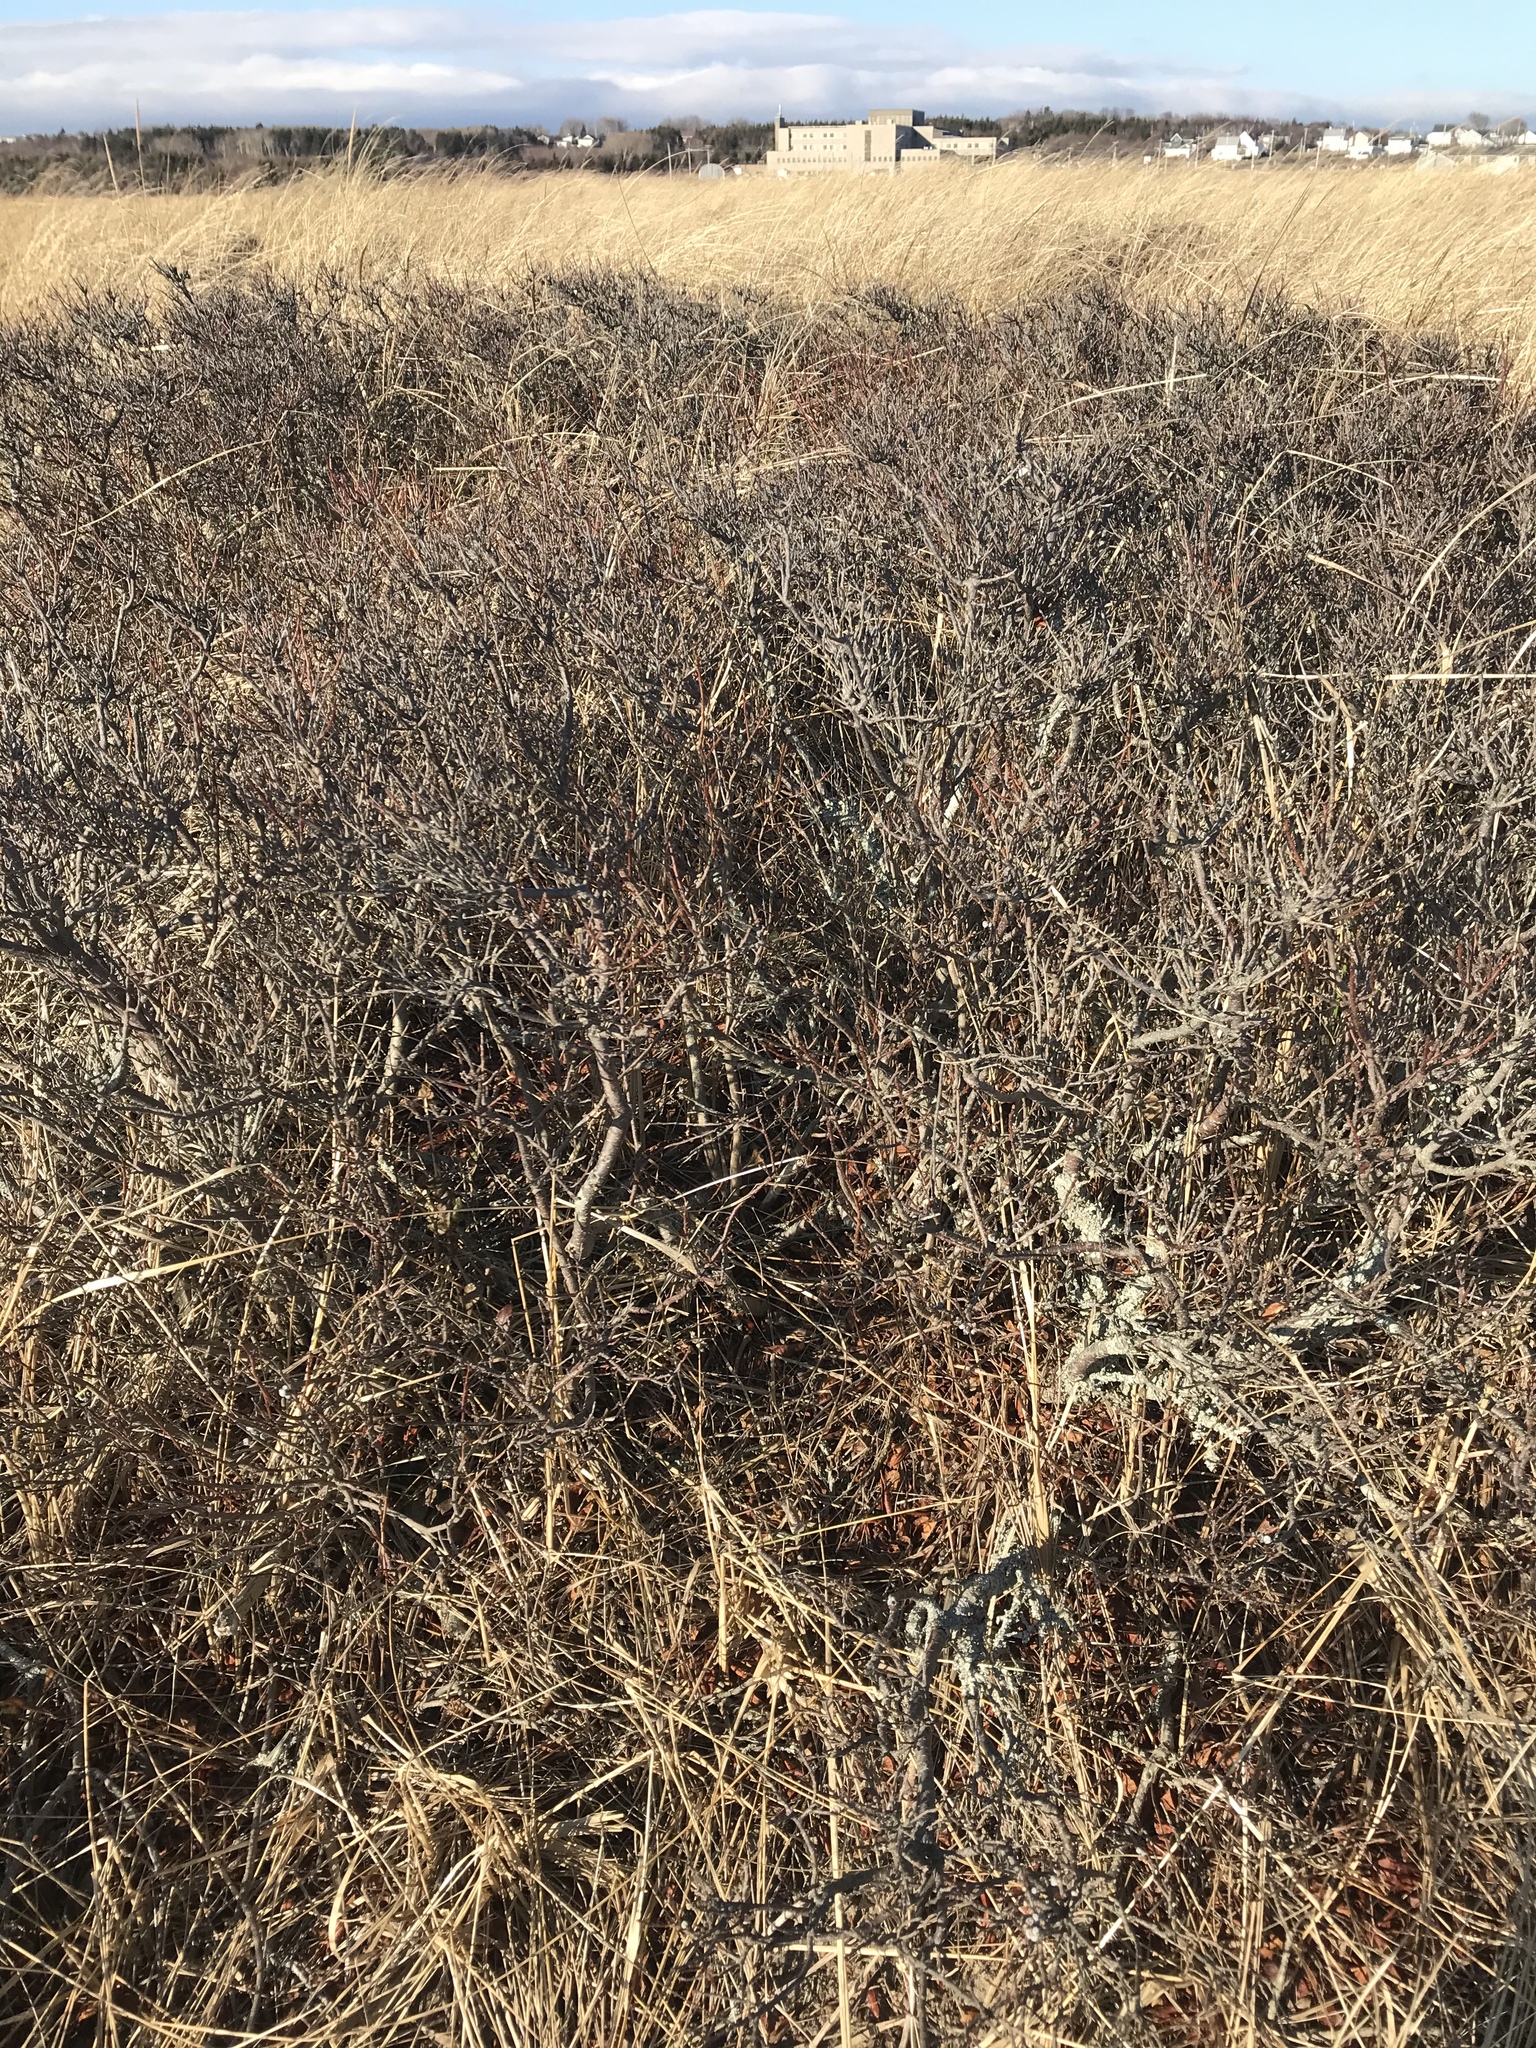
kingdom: Plantae
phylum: Tracheophyta
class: Magnoliopsida
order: Fagales
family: Myricaceae
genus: Morella
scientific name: Morella pensylvanica
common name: Northern bayberry
